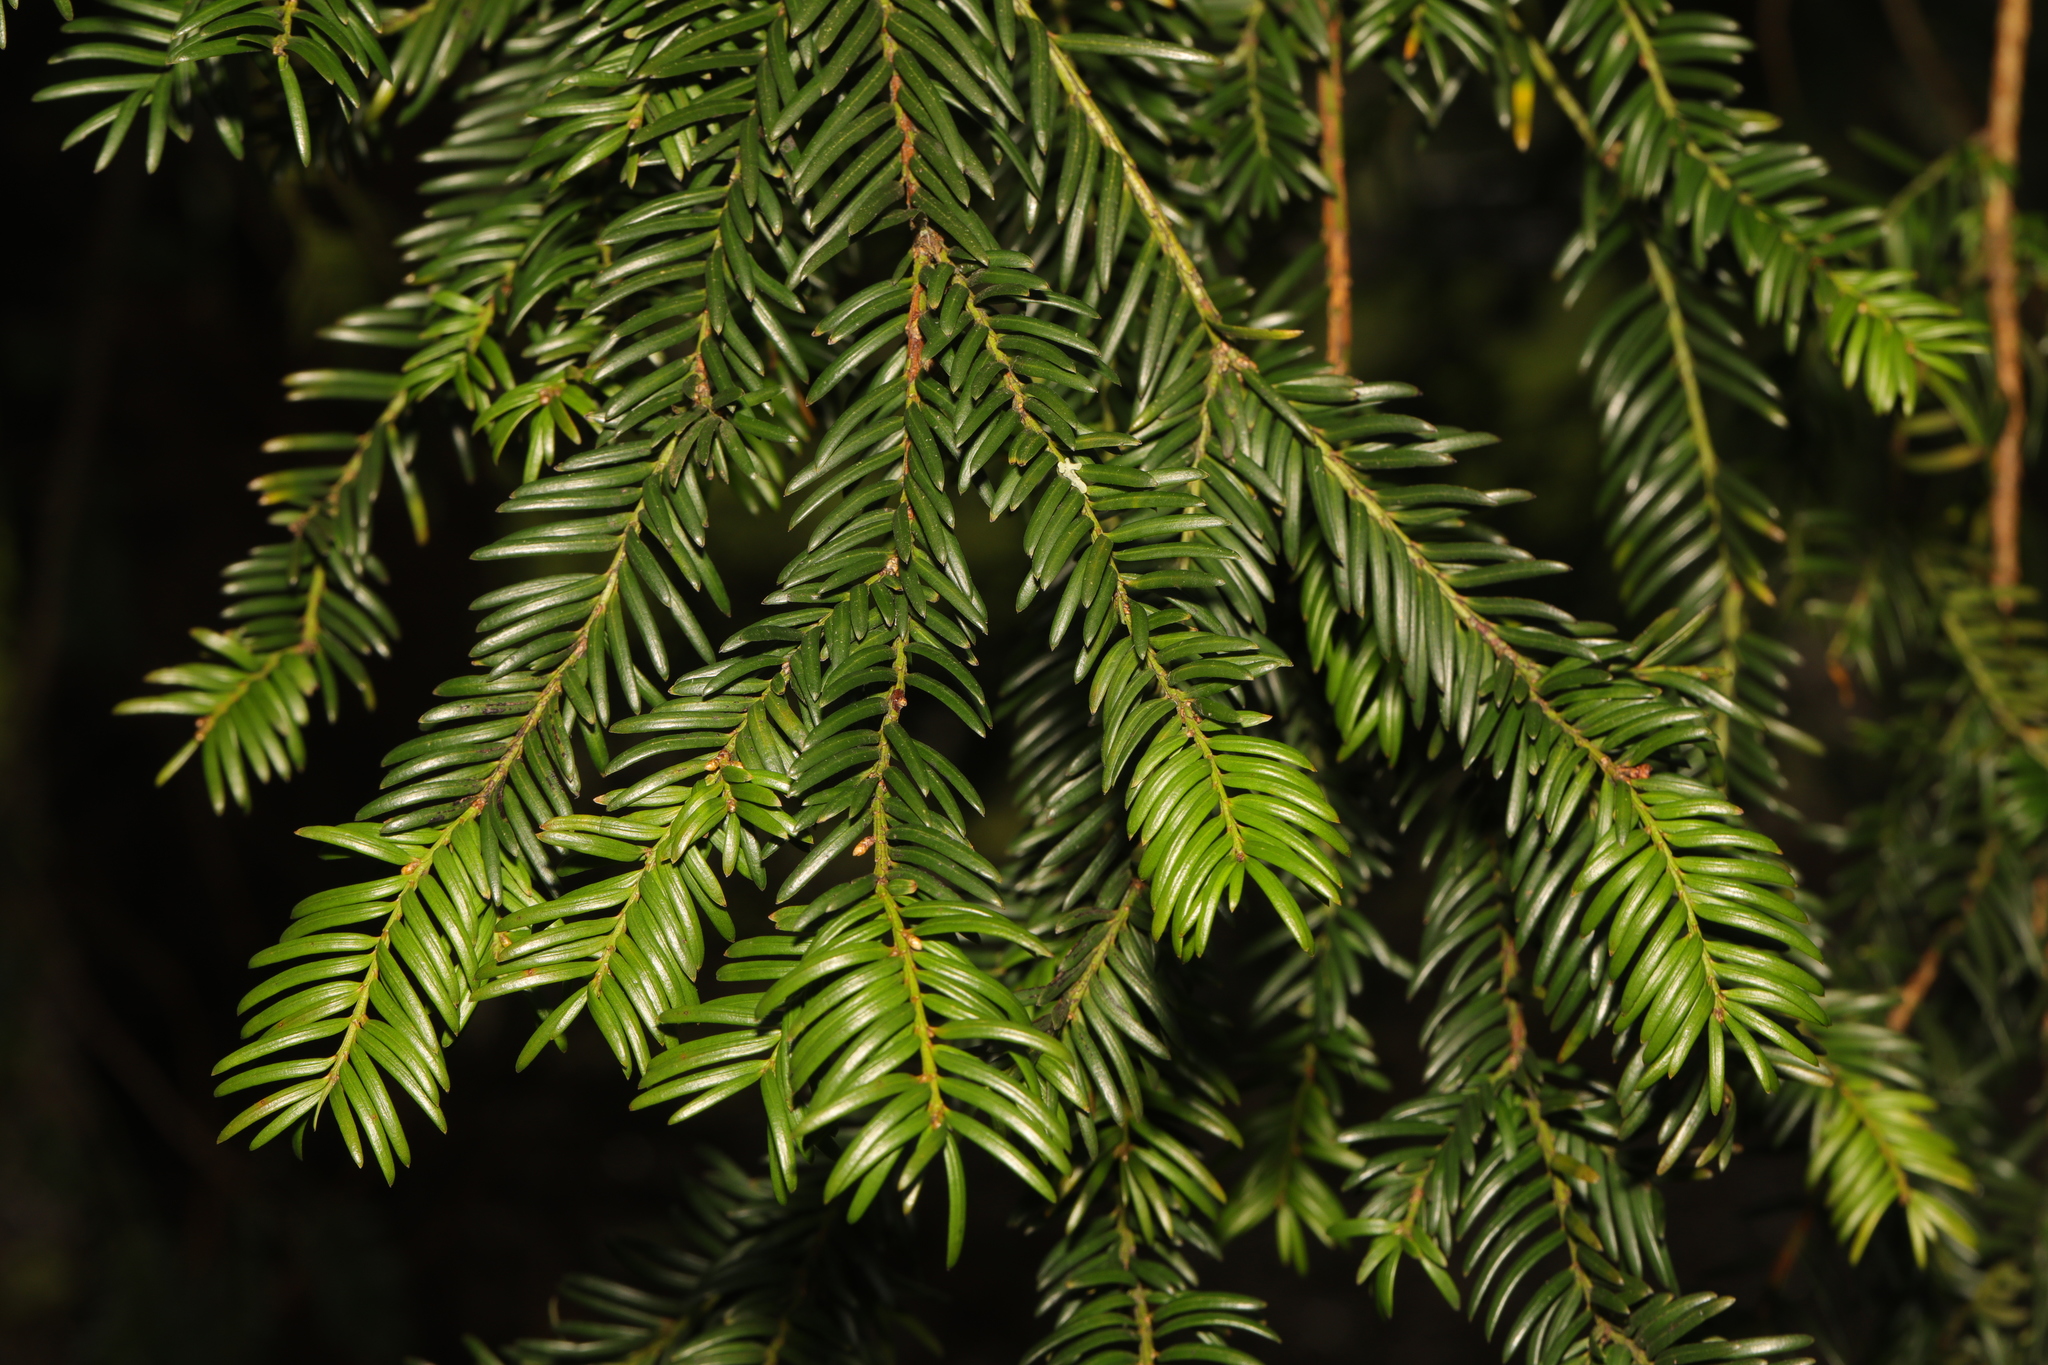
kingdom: Plantae
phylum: Tracheophyta
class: Pinopsida
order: Pinales
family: Taxaceae
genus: Taxus
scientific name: Taxus baccata
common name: Yew
